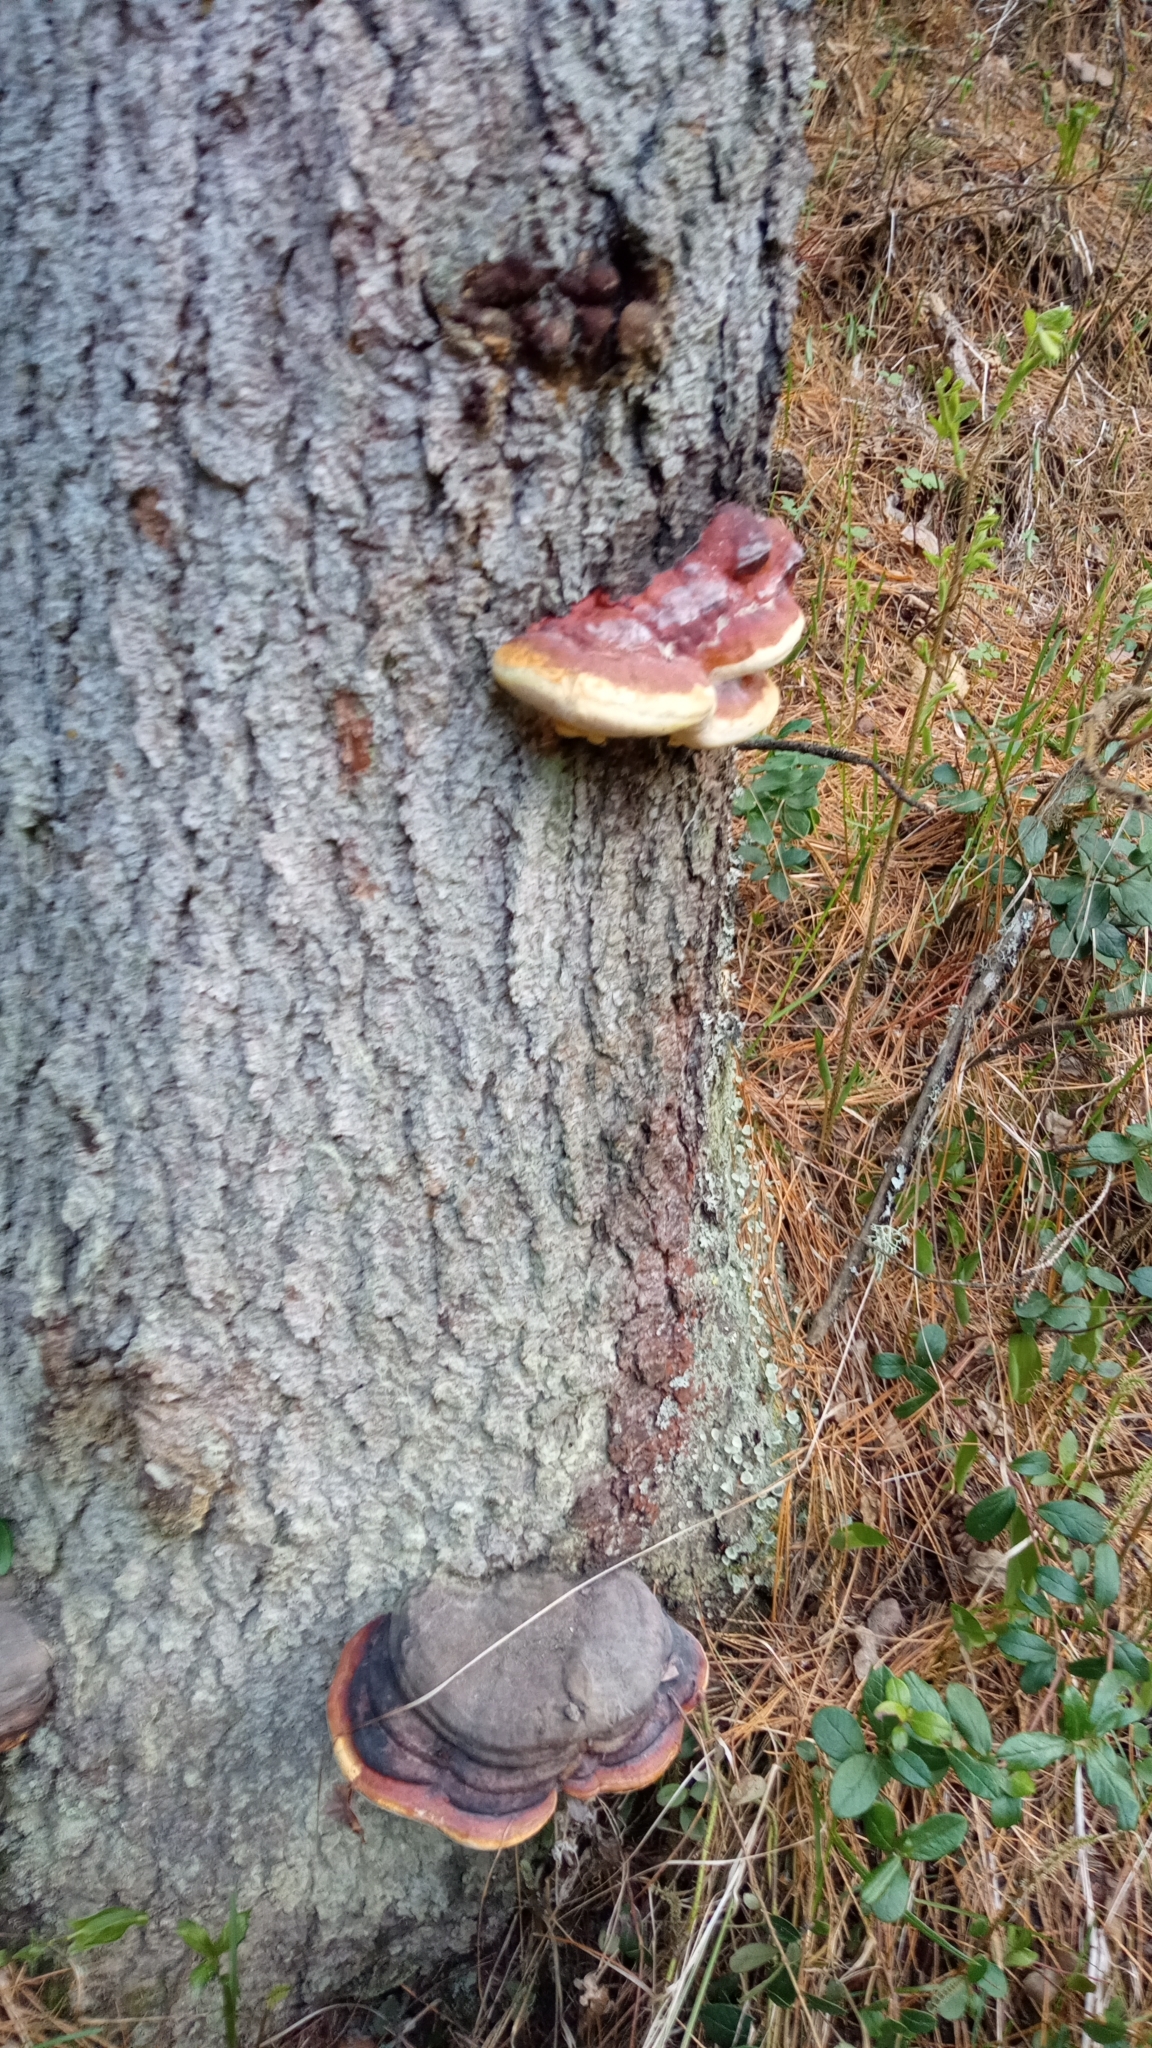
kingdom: Fungi
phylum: Basidiomycota
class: Agaricomycetes
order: Polyporales
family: Fomitopsidaceae
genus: Fomitopsis
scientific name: Fomitopsis pinicola
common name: Red-belted bracket
